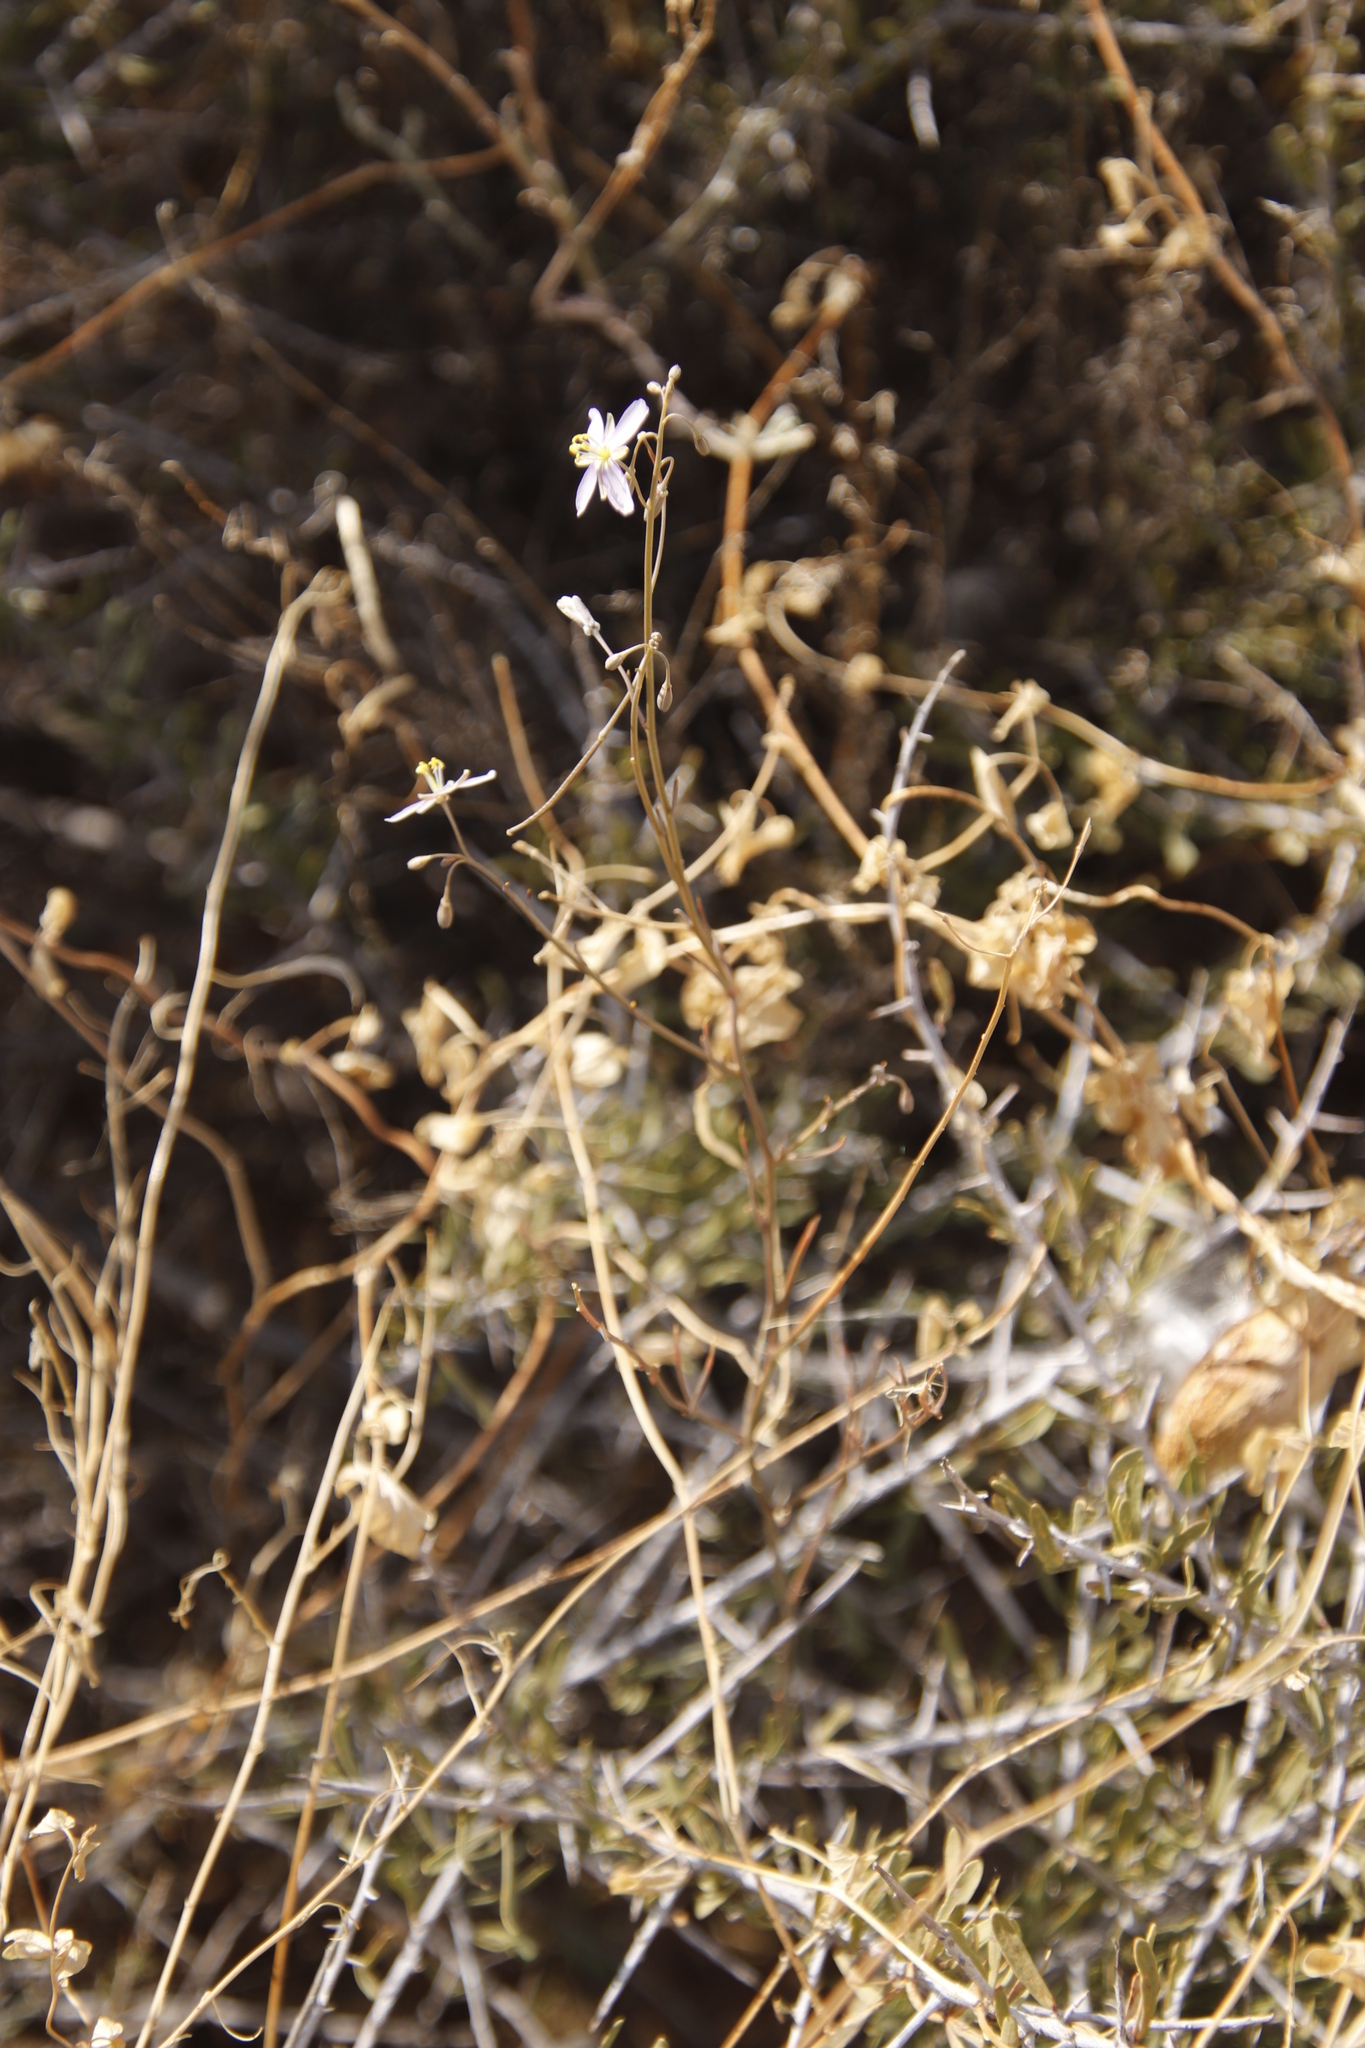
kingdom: Plantae
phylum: Tracheophyta
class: Magnoliopsida
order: Brassicales
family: Brassicaceae
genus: Heliophila
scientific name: Heliophila minima
